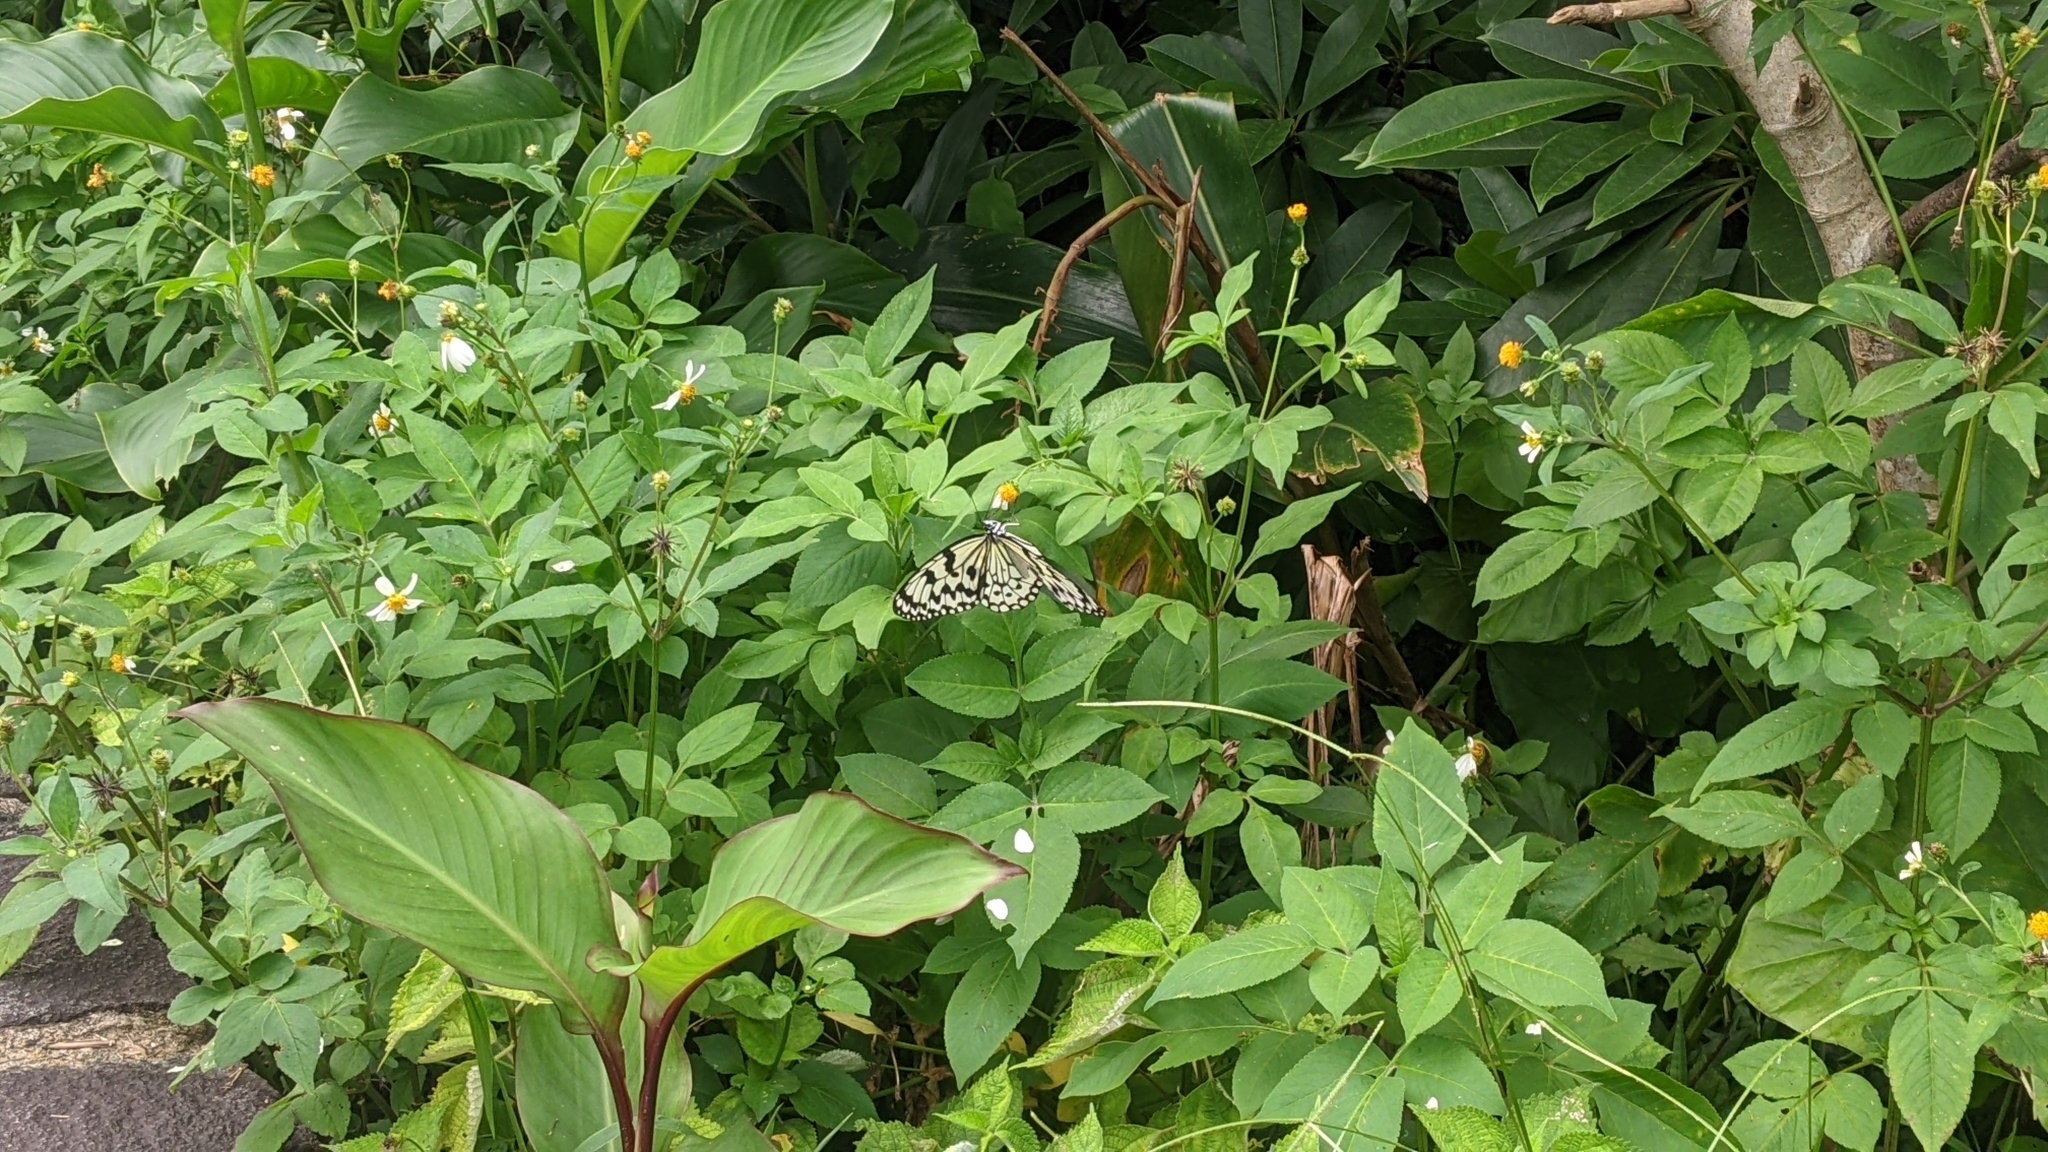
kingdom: Animalia
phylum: Arthropoda
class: Insecta
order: Lepidoptera
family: Nymphalidae
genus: Idea
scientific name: Idea leuconoe
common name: Rice paper butterfly
